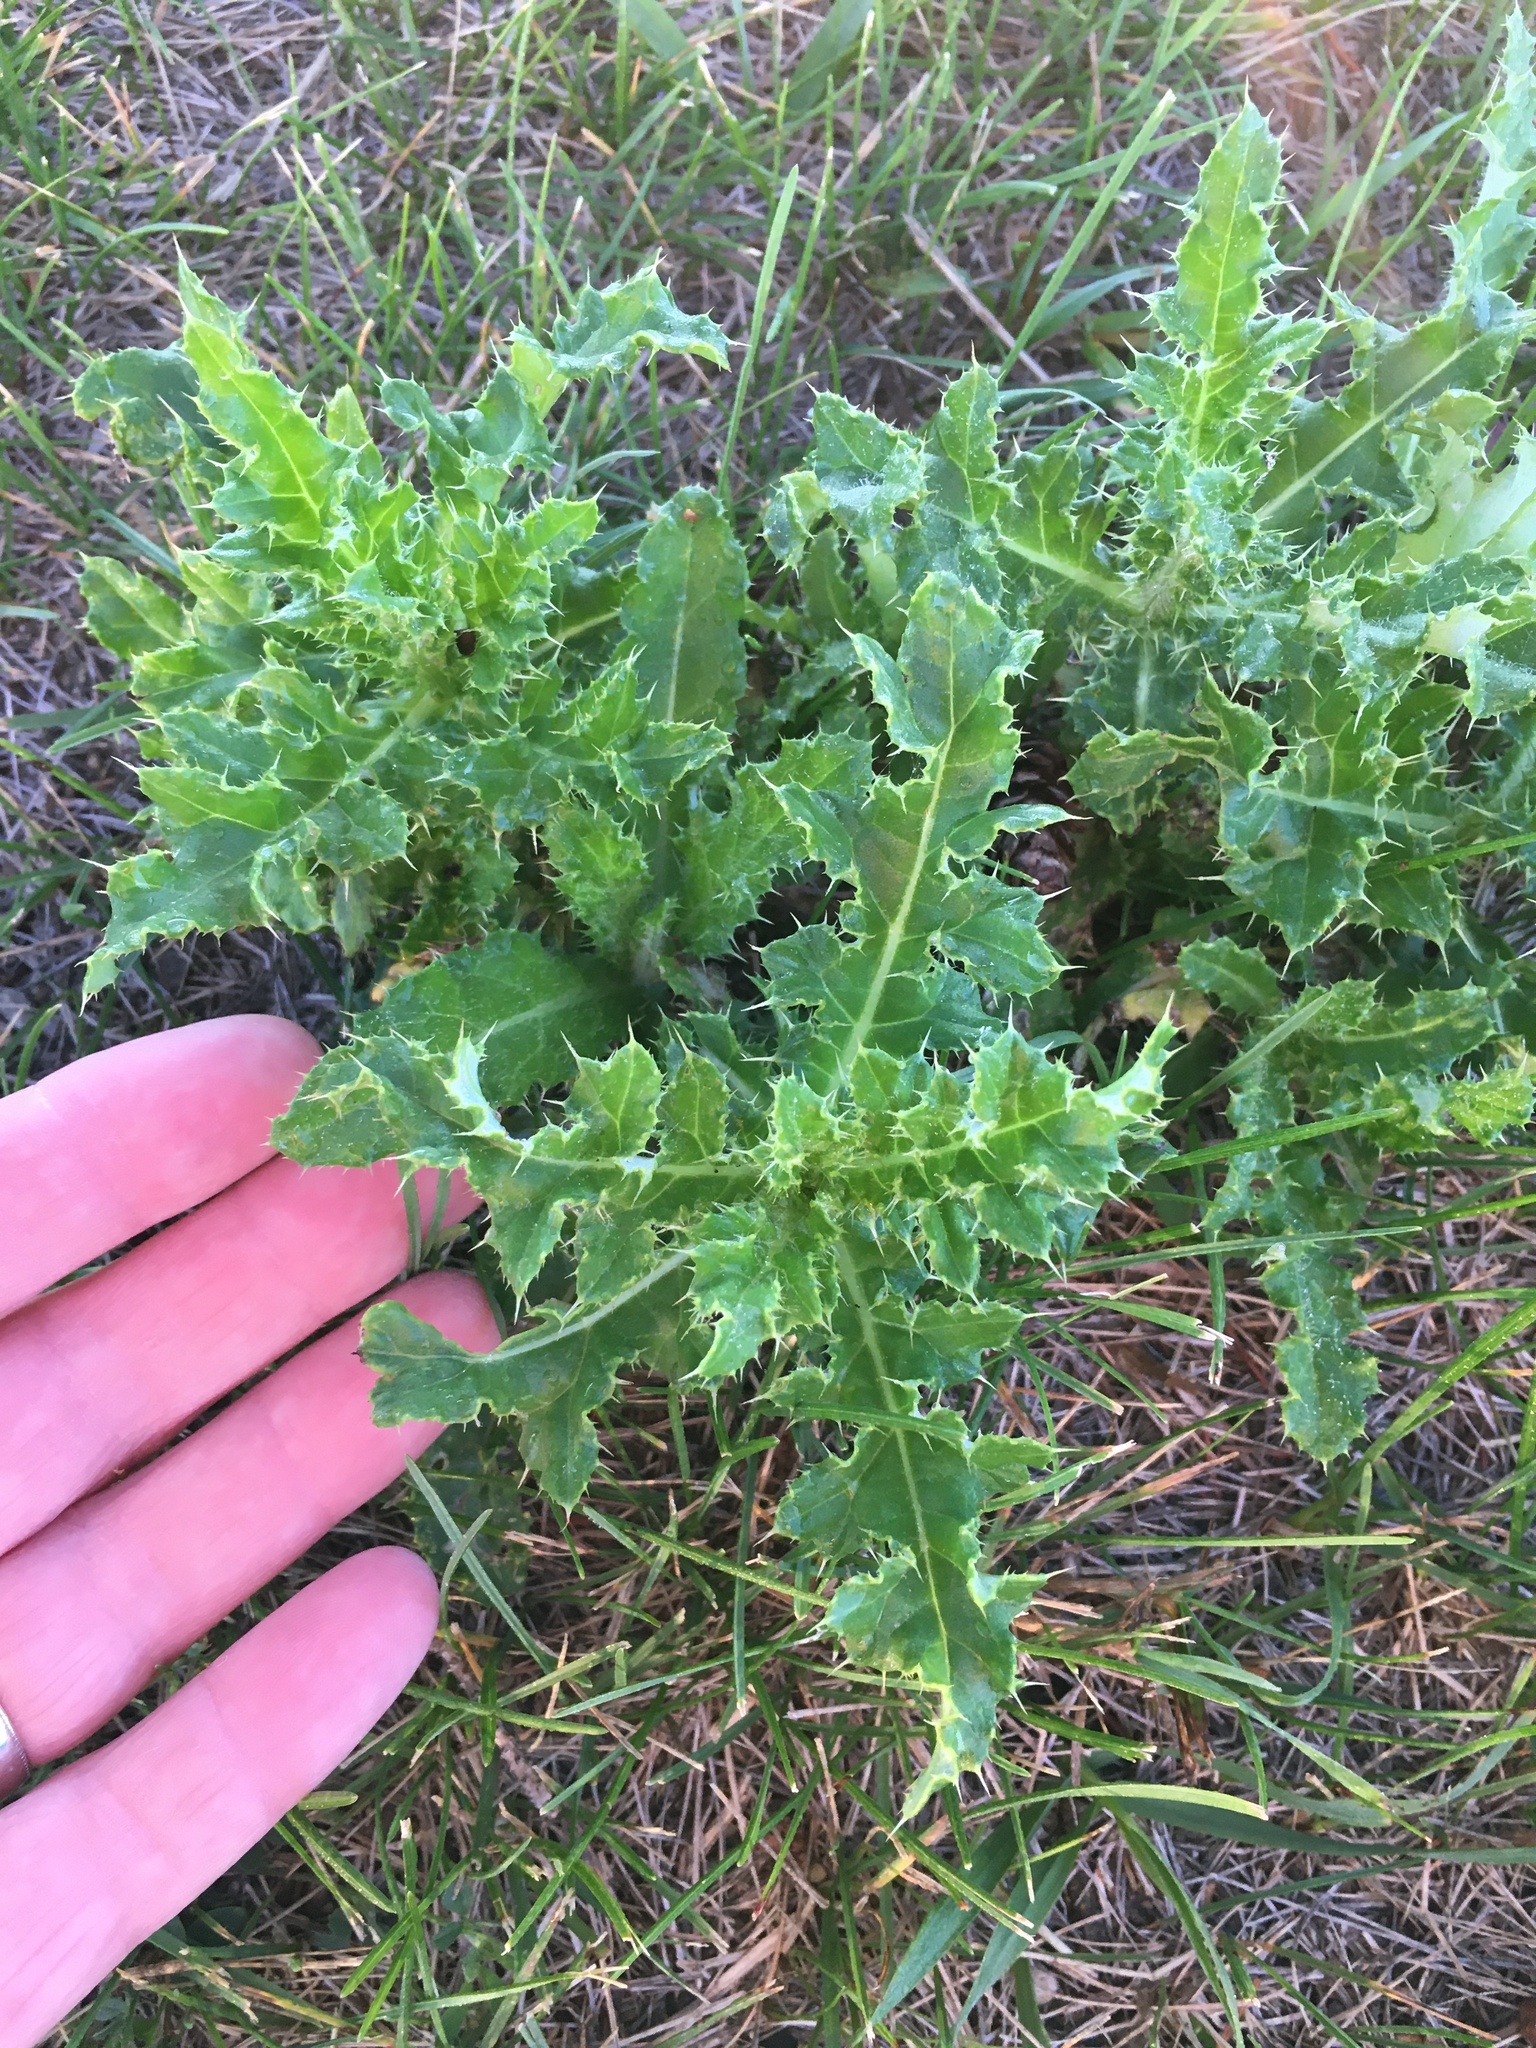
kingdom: Plantae
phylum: Tracheophyta
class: Magnoliopsida
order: Asterales
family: Asteraceae
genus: Cirsium
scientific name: Cirsium arvense
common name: Creeping thistle
